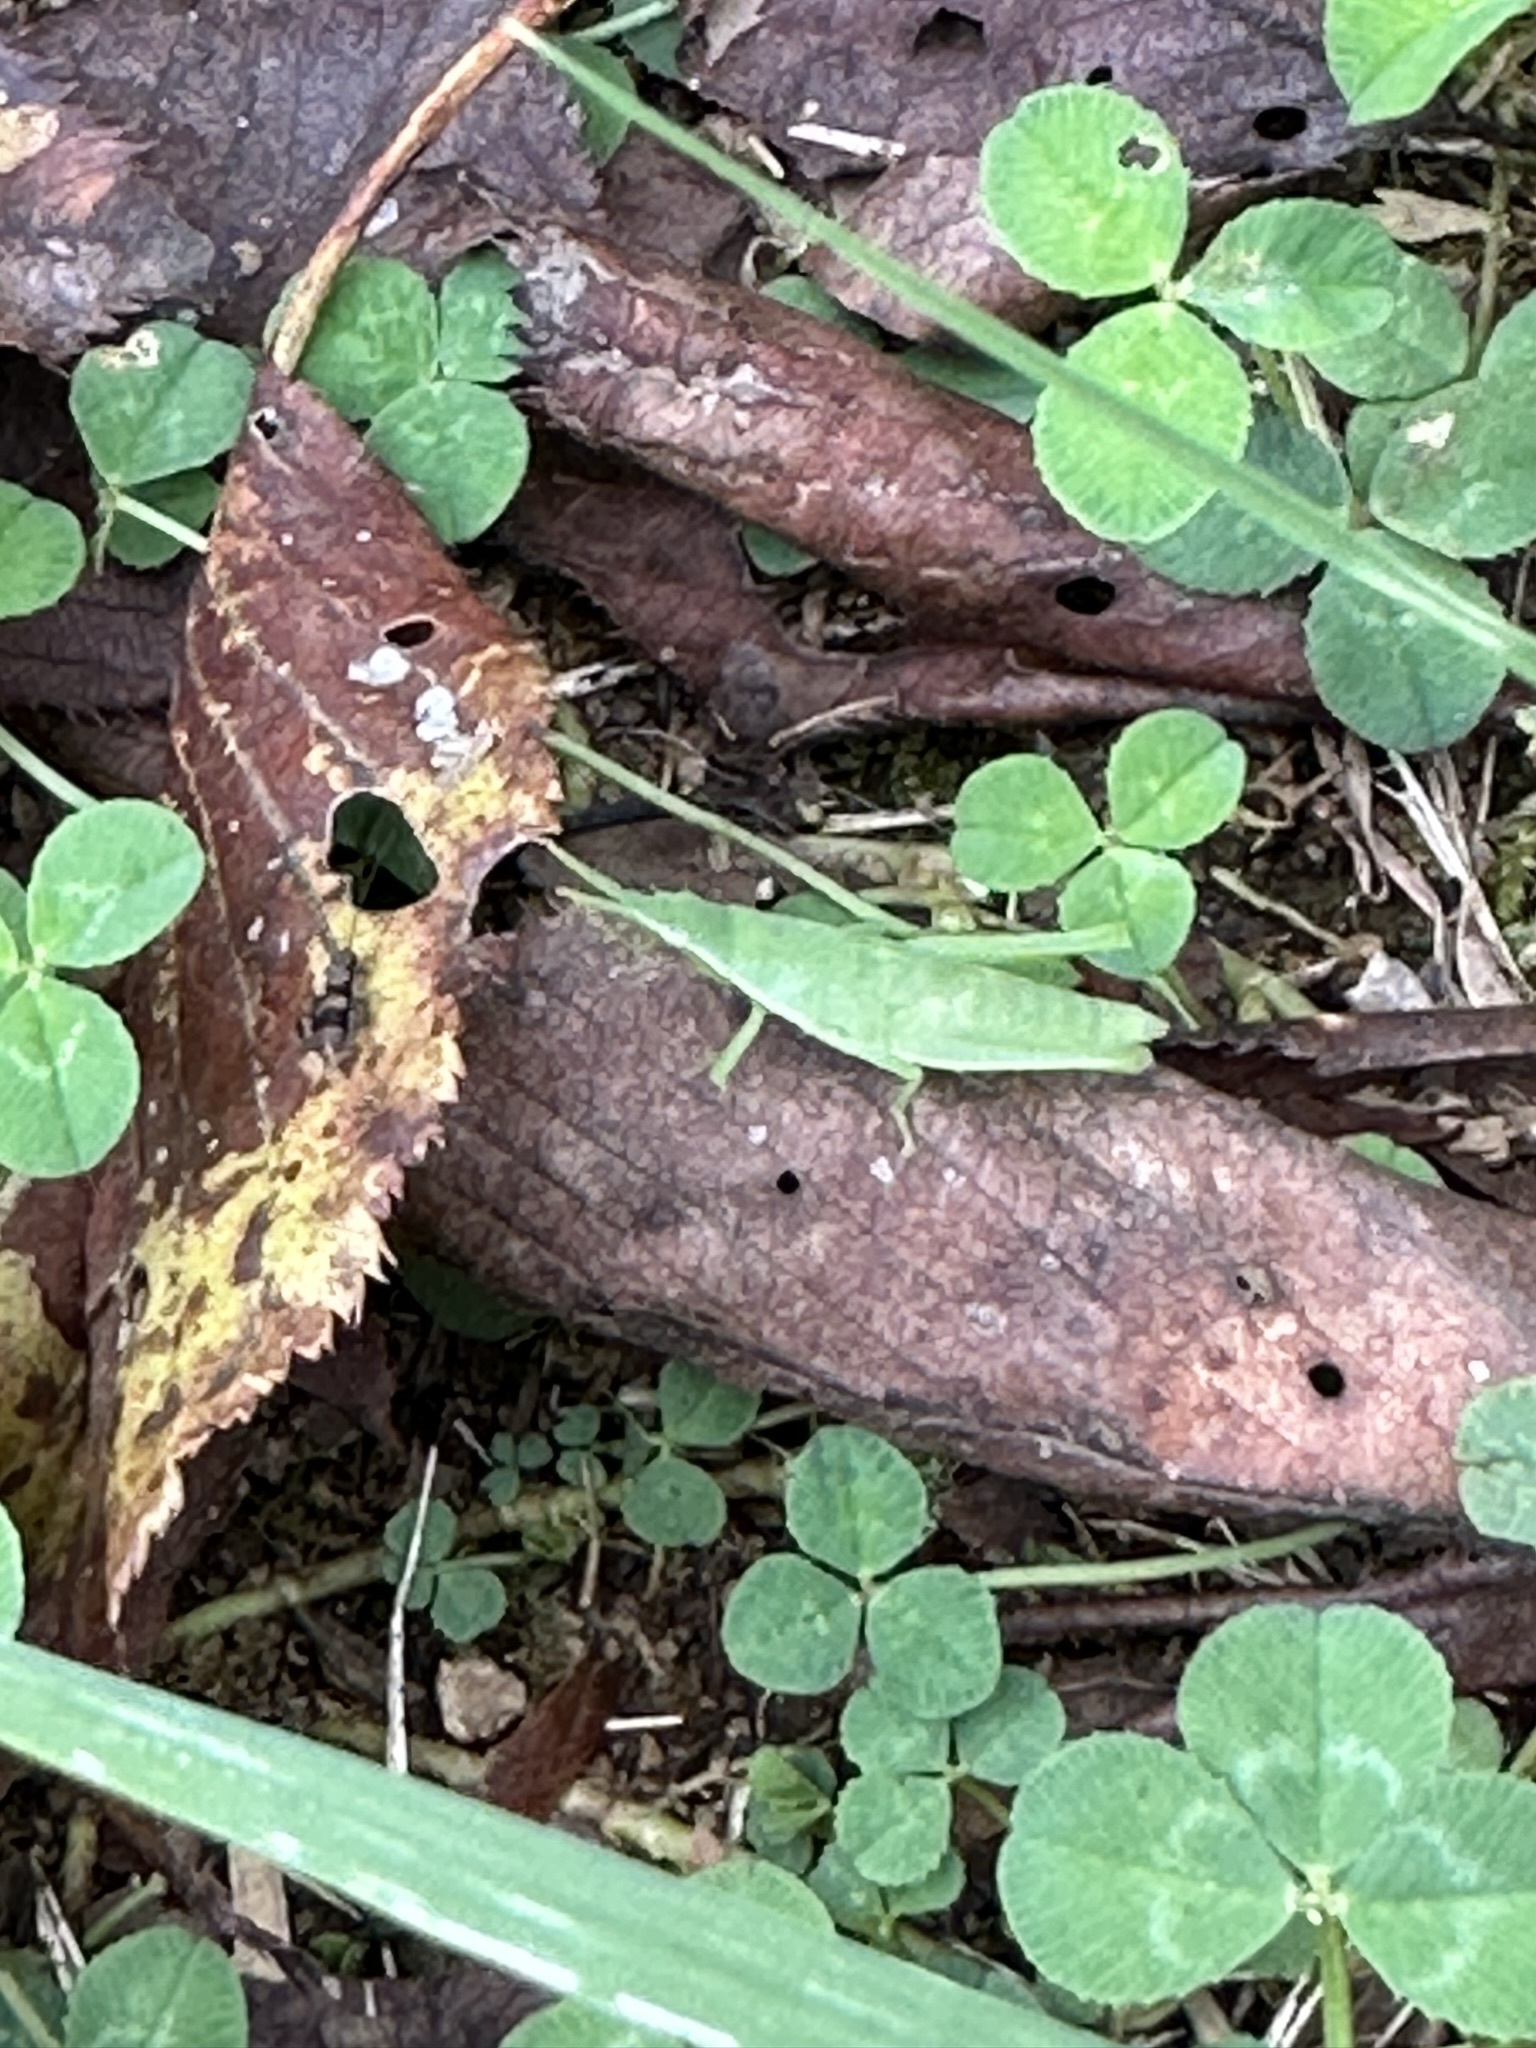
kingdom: Animalia
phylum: Arthropoda
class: Insecta
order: Orthoptera
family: Pyrgomorphidae
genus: Atractomorpha
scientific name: Atractomorpha lata
